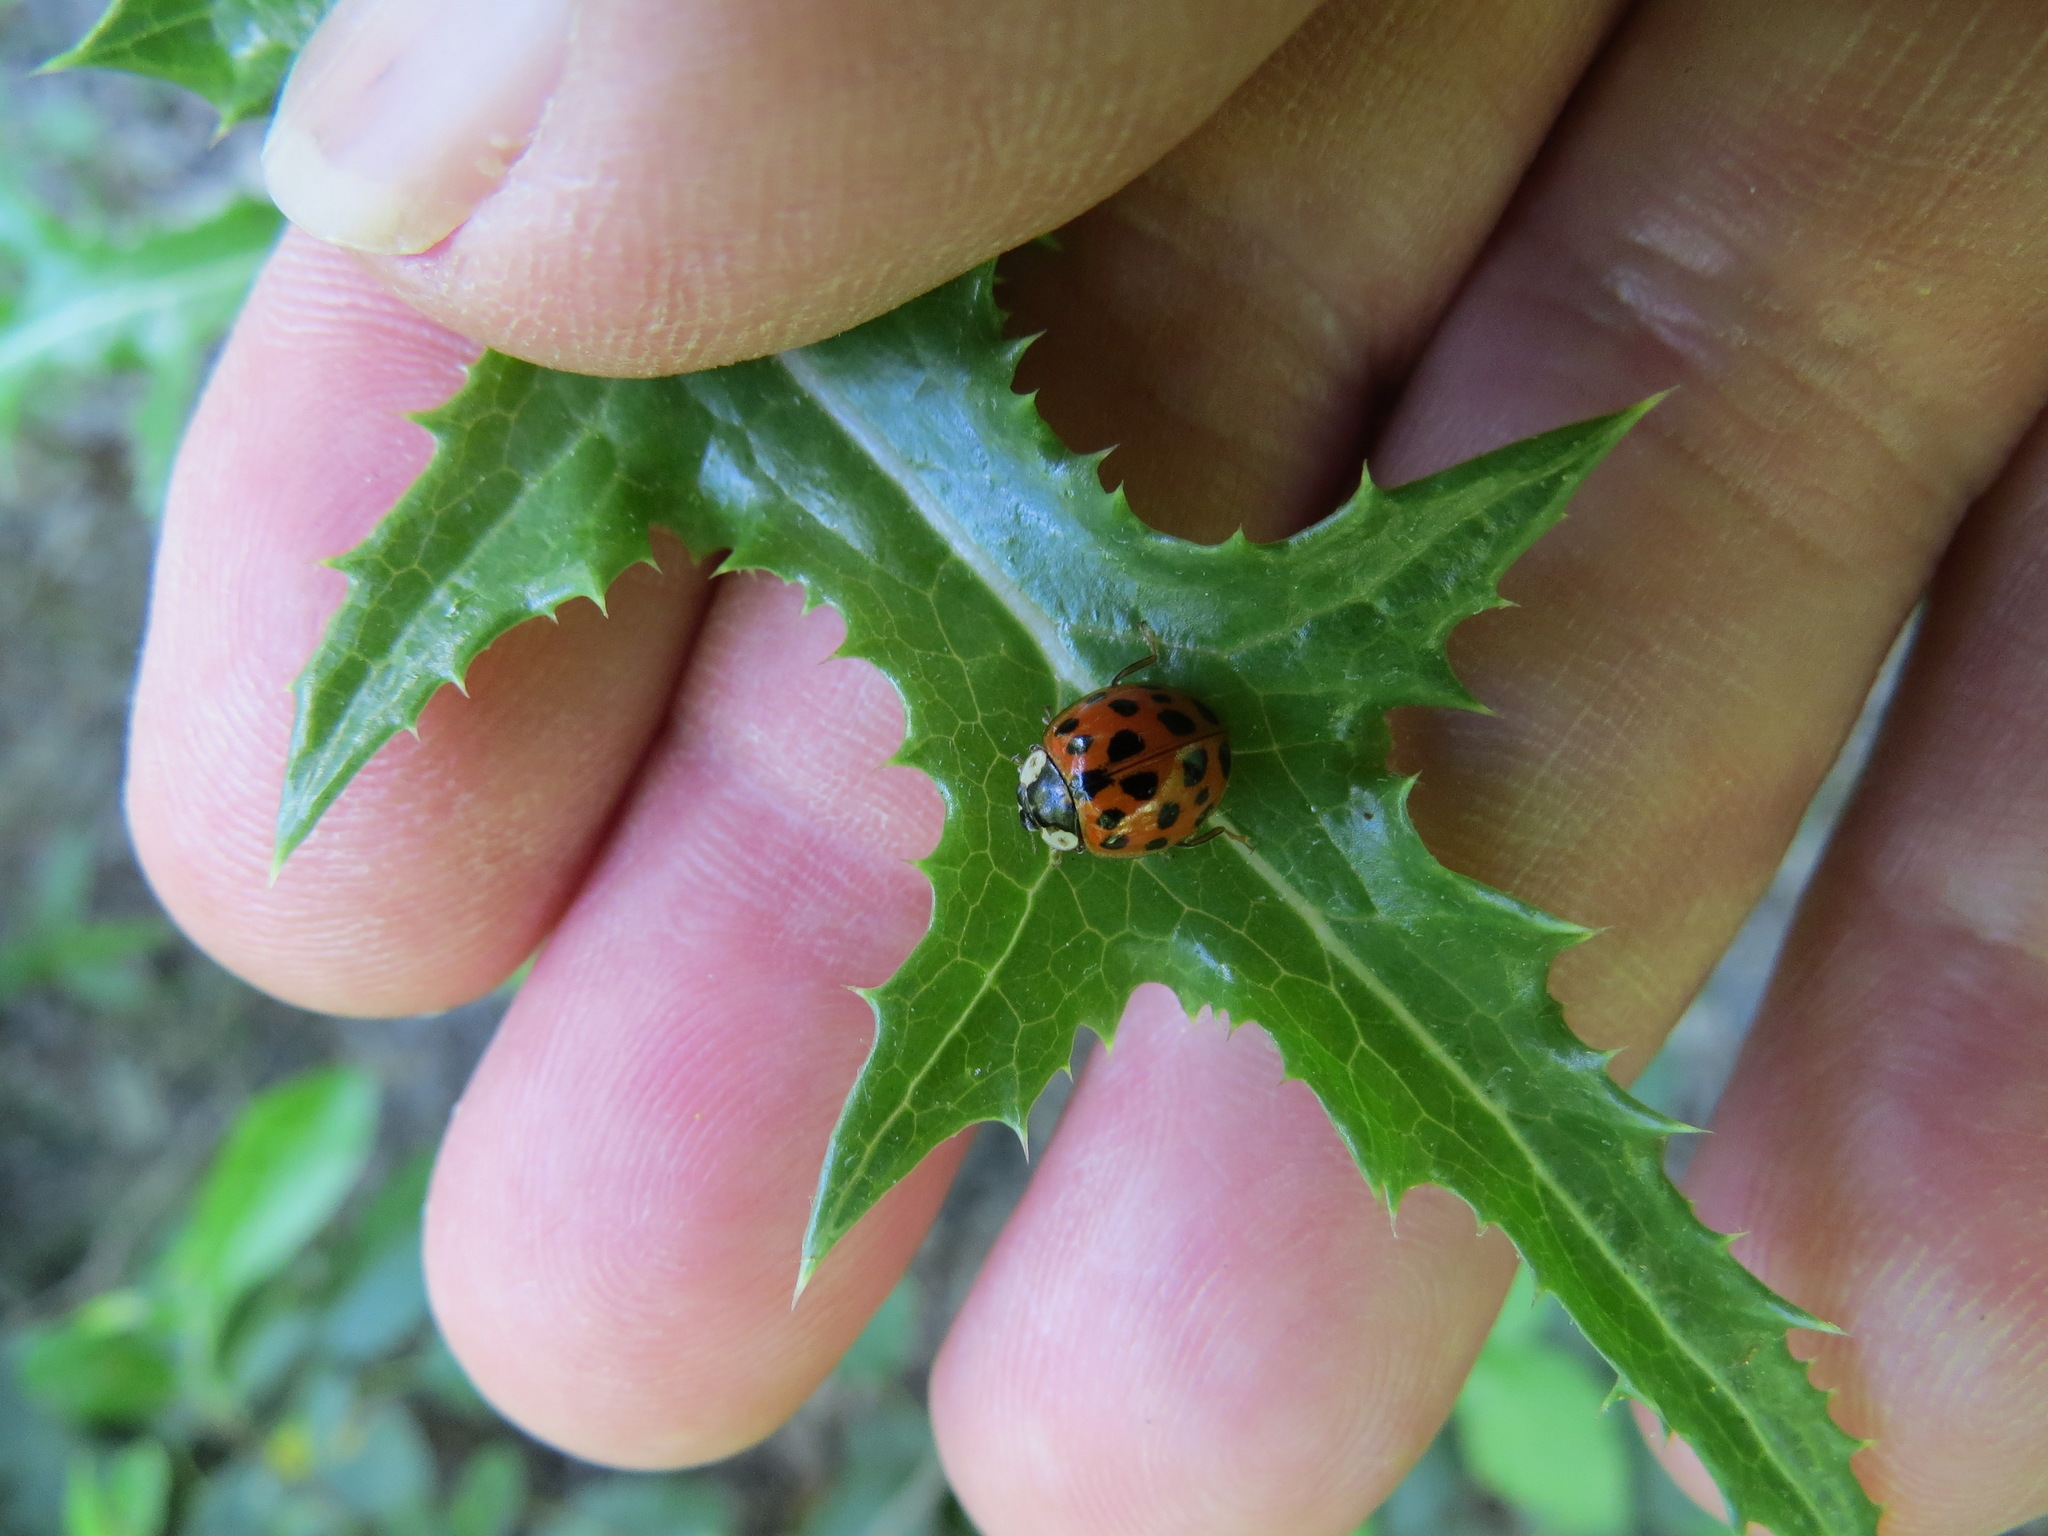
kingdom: Animalia
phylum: Arthropoda
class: Insecta
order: Coleoptera
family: Coccinellidae
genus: Harmonia
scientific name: Harmonia axyridis
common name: Harlequin ladybird
